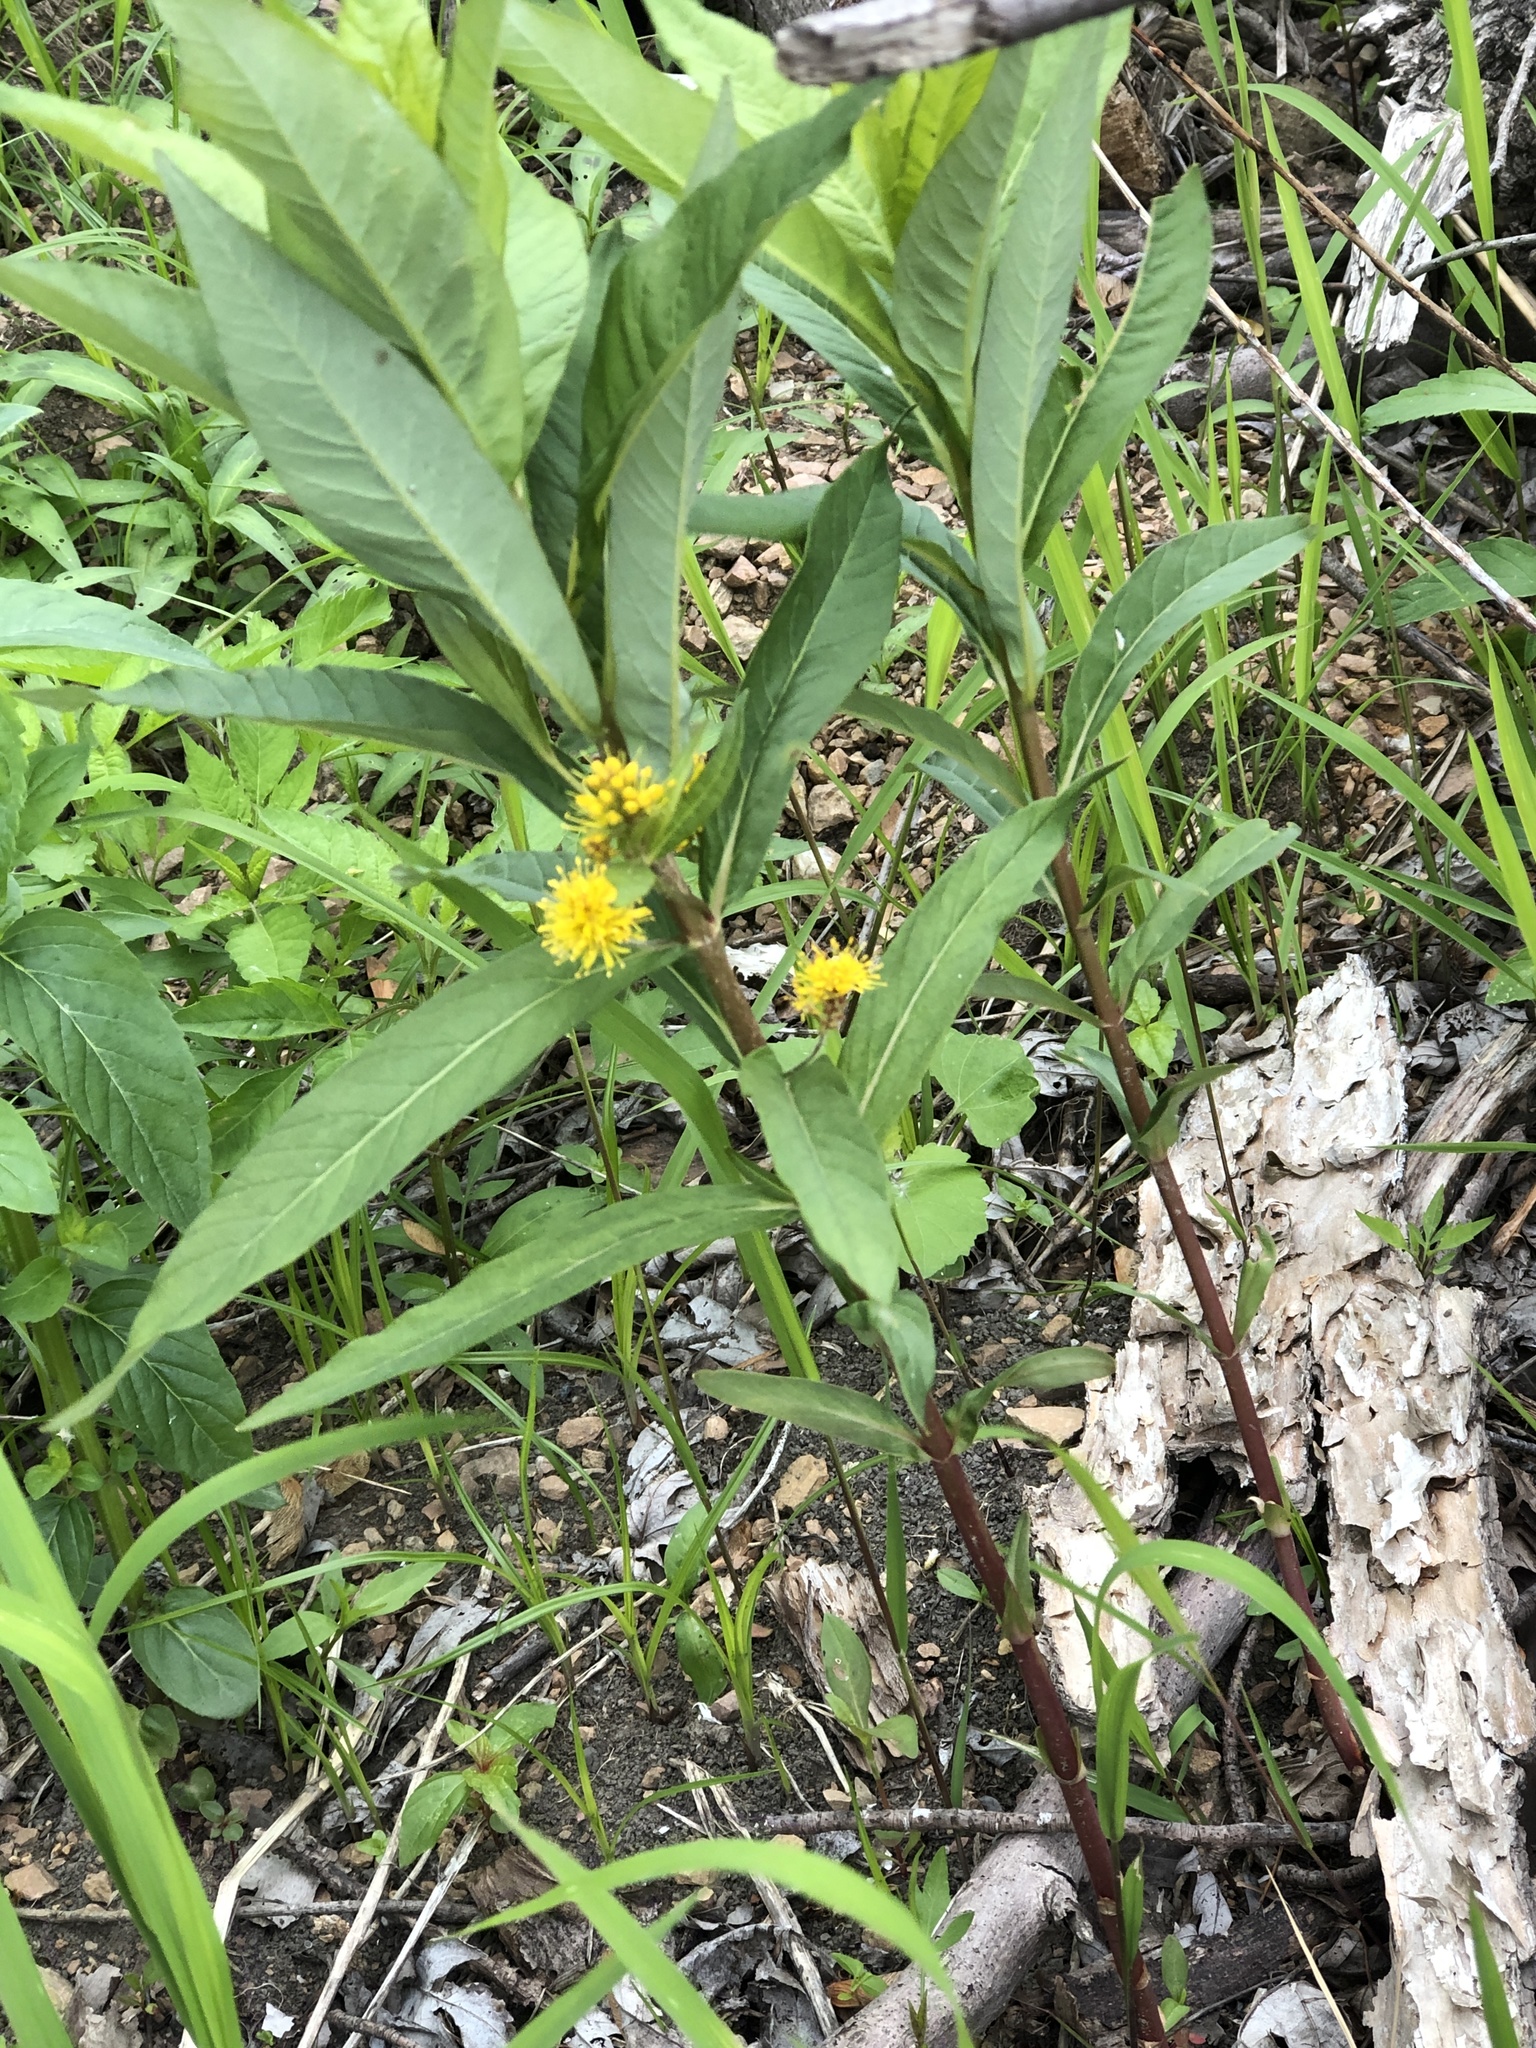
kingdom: Plantae
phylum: Tracheophyta
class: Magnoliopsida
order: Ericales
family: Primulaceae
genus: Lysimachia
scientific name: Lysimachia thyrsiflora
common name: Tufted loosestrife
